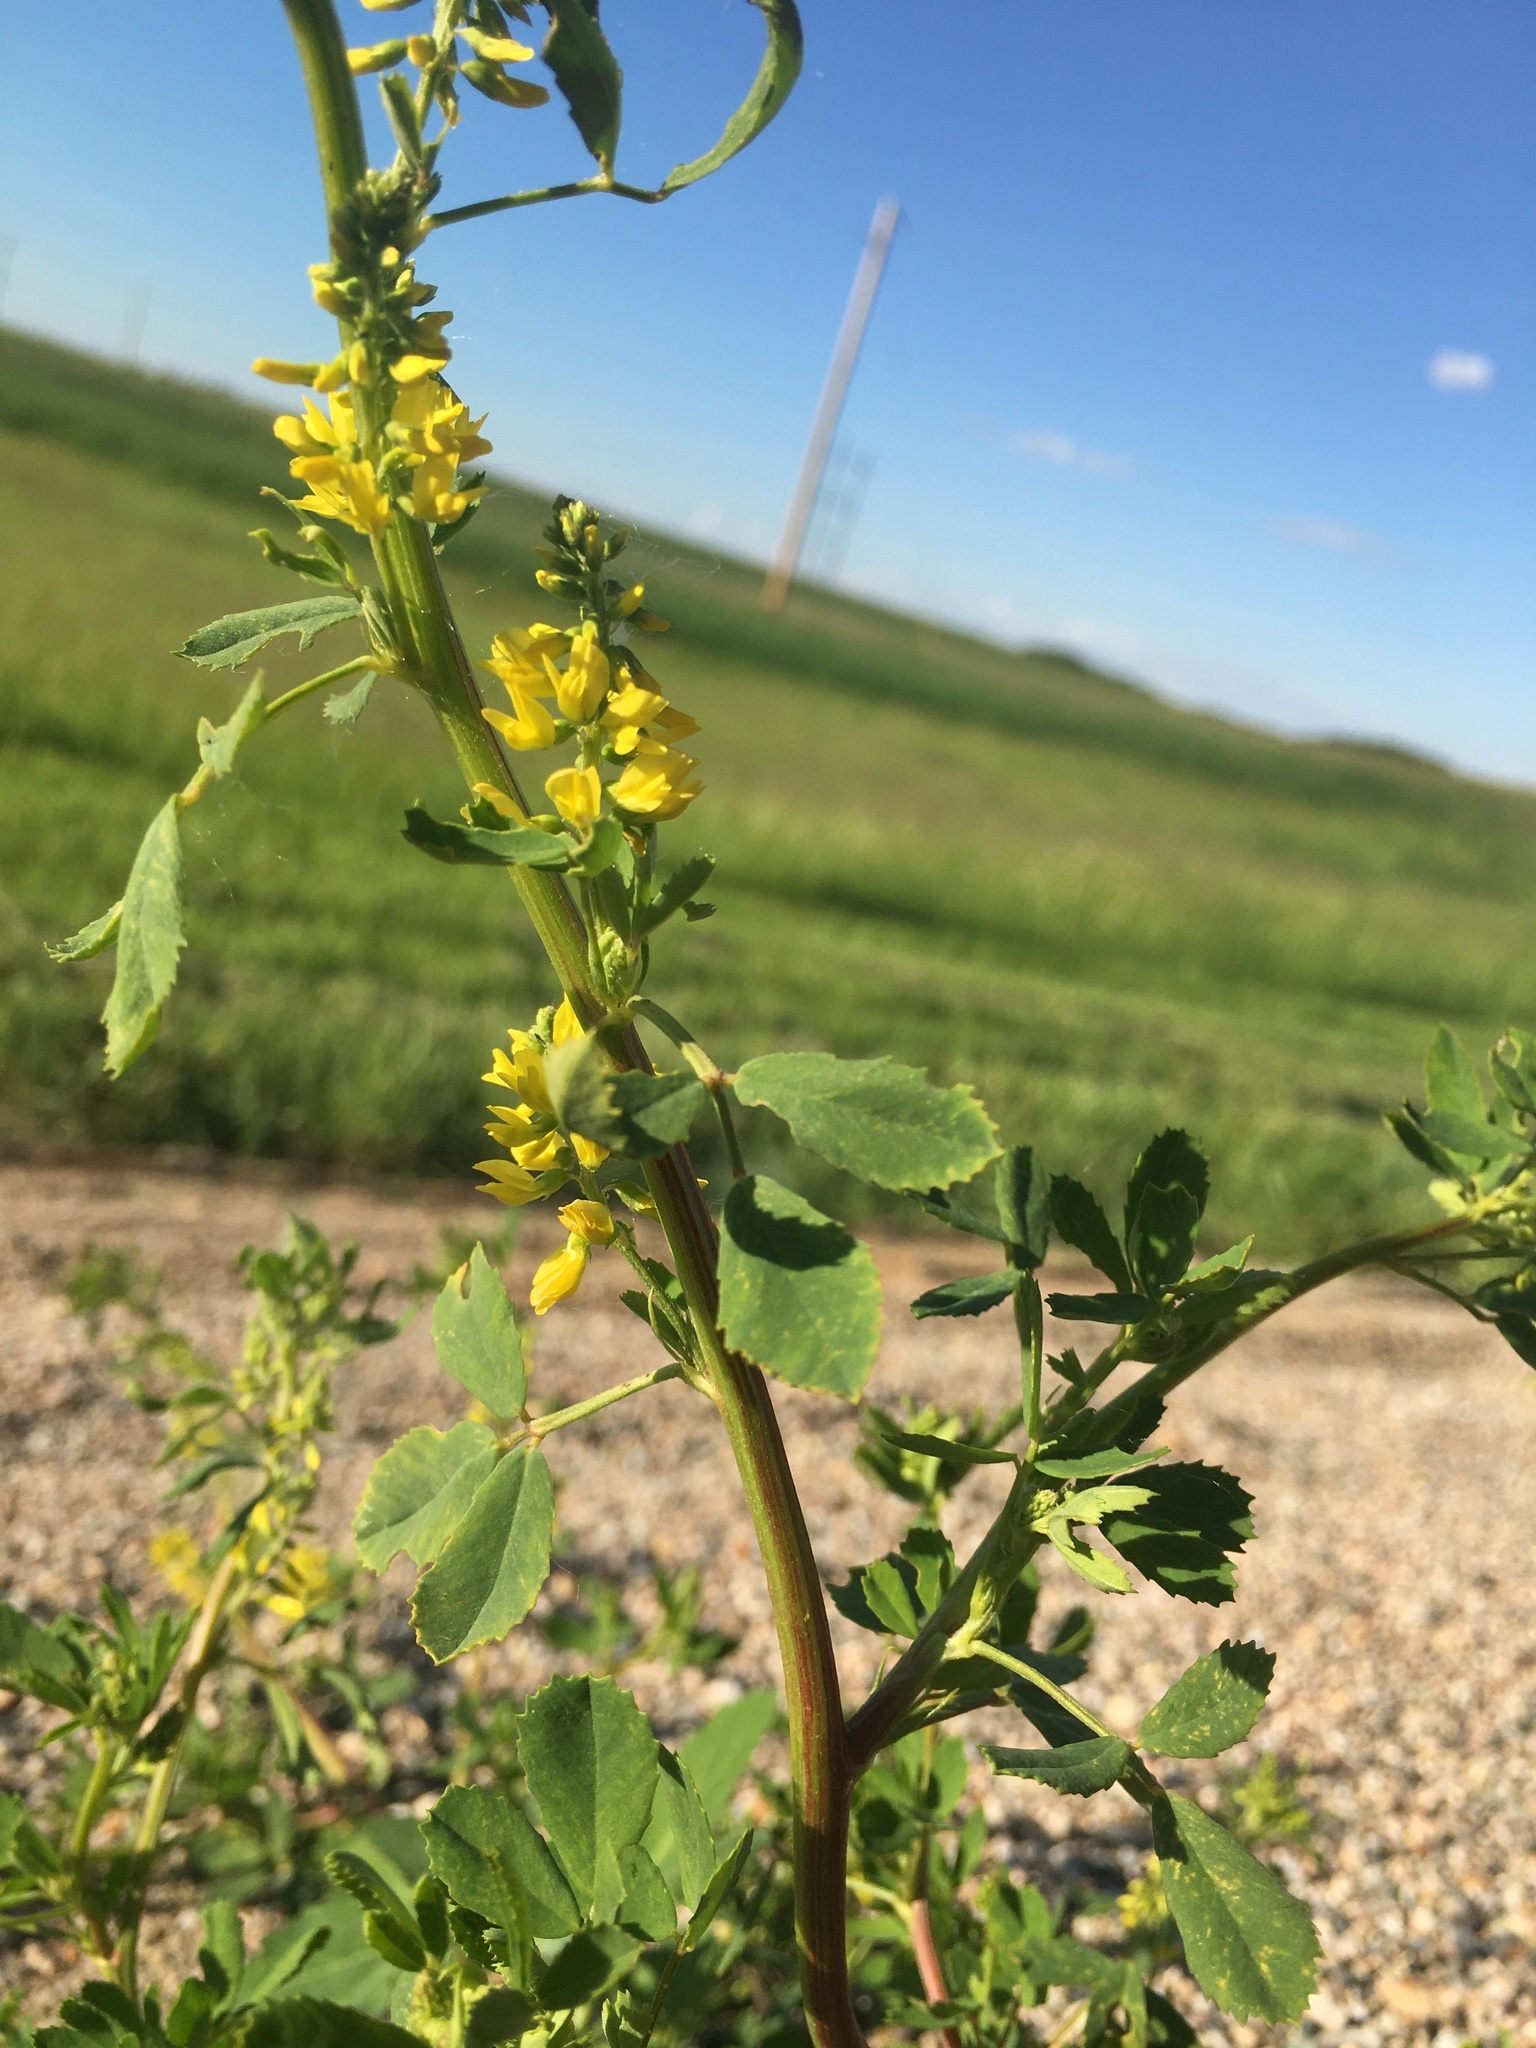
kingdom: Plantae
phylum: Tracheophyta
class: Magnoliopsida
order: Fabales
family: Fabaceae
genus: Melilotus
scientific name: Melilotus officinalis
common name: Sweetclover
